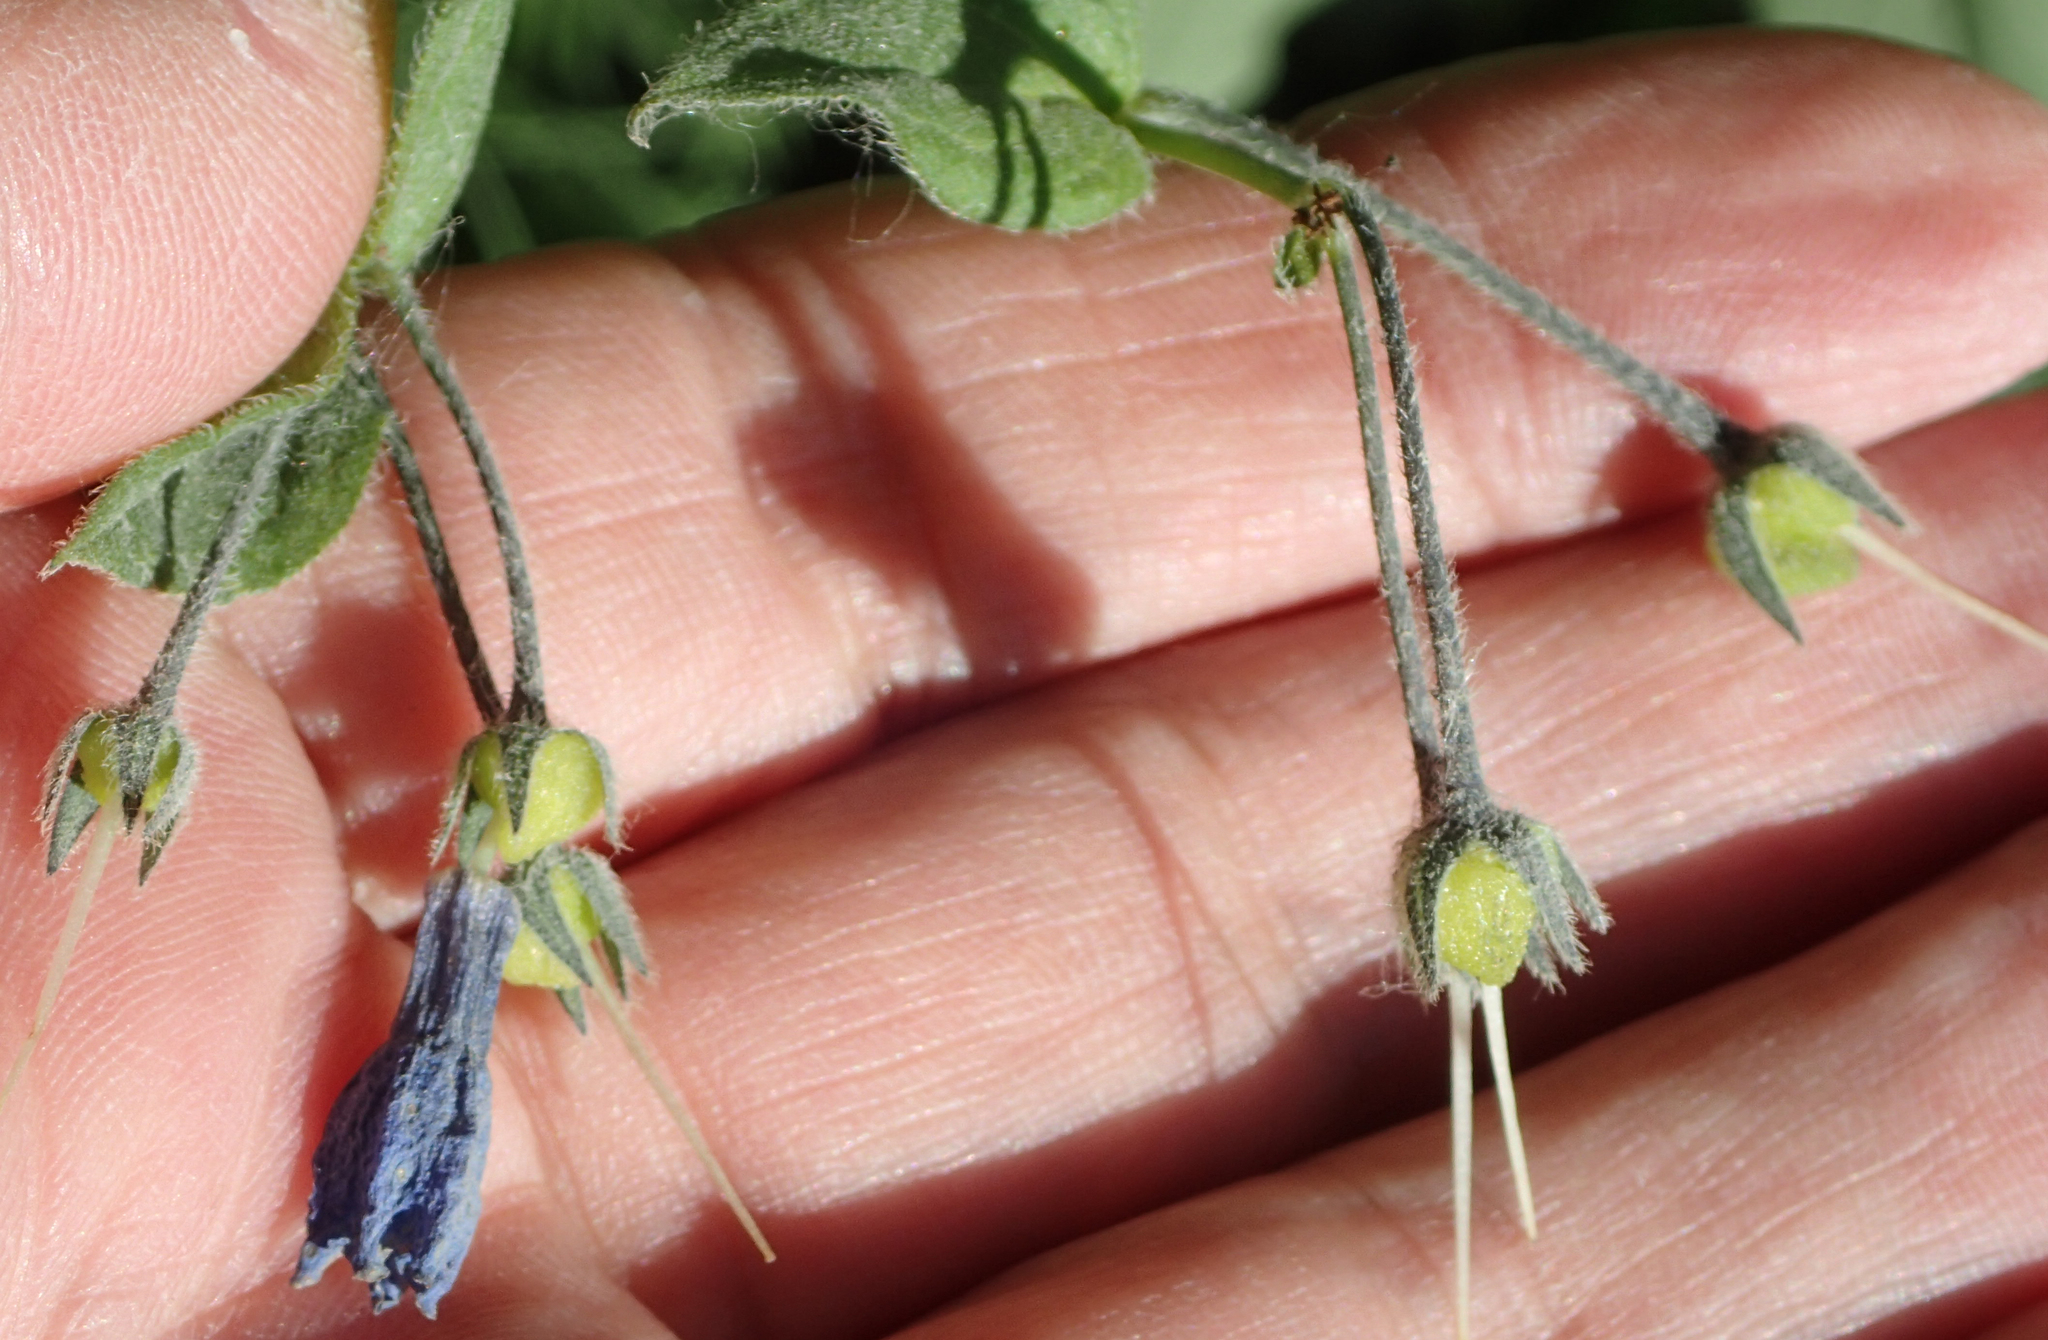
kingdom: Plantae
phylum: Tracheophyta
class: Magnoliopsida
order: Boraginales
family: Boraginaceae
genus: Mertensia
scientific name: Mertensia paniculata
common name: Panicled bluebells
